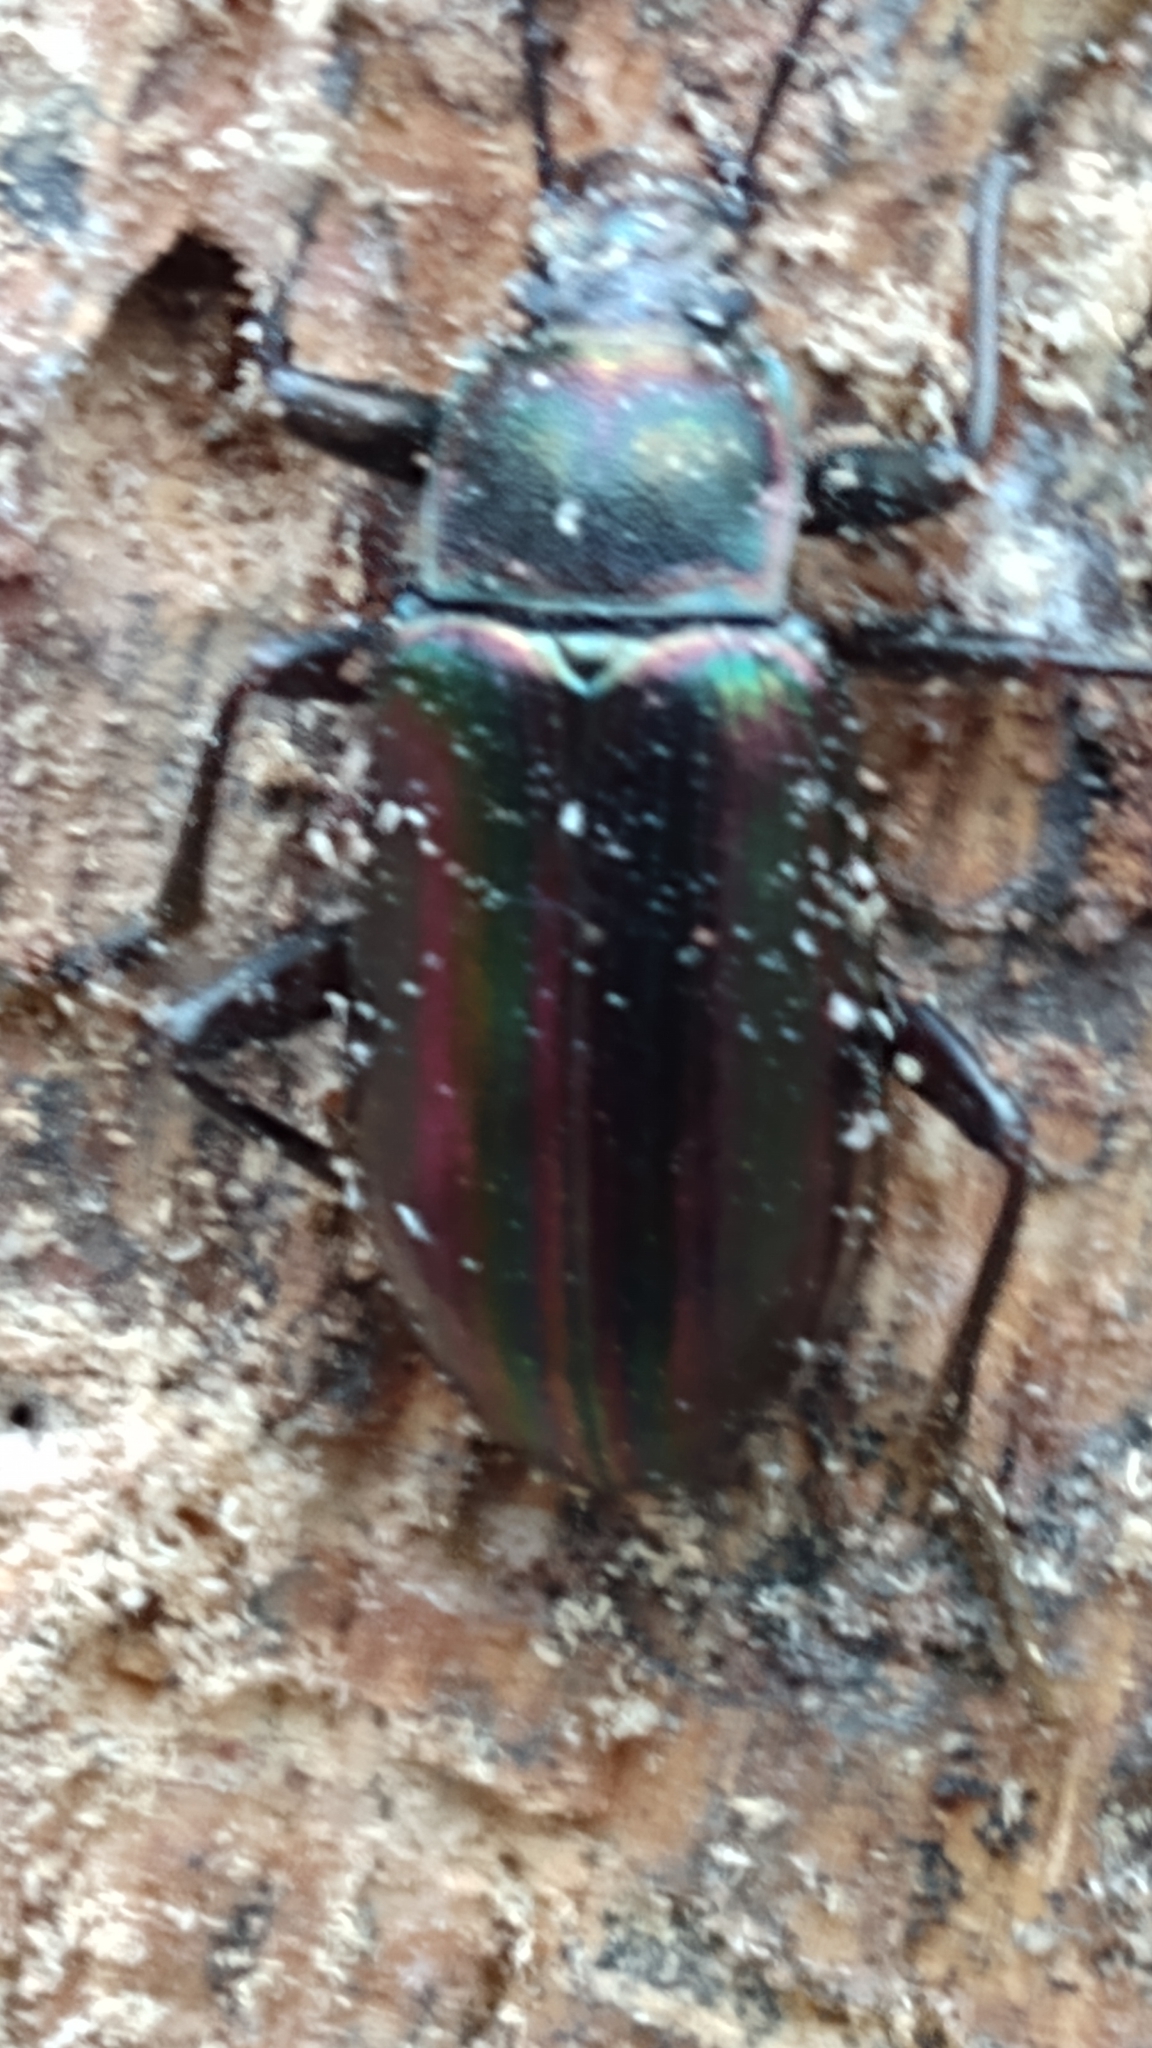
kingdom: Animalia
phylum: Arthropoda
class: Insecta
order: Coleoptera
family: Tenebrionidae
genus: Tarpela
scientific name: Tarpela micans
